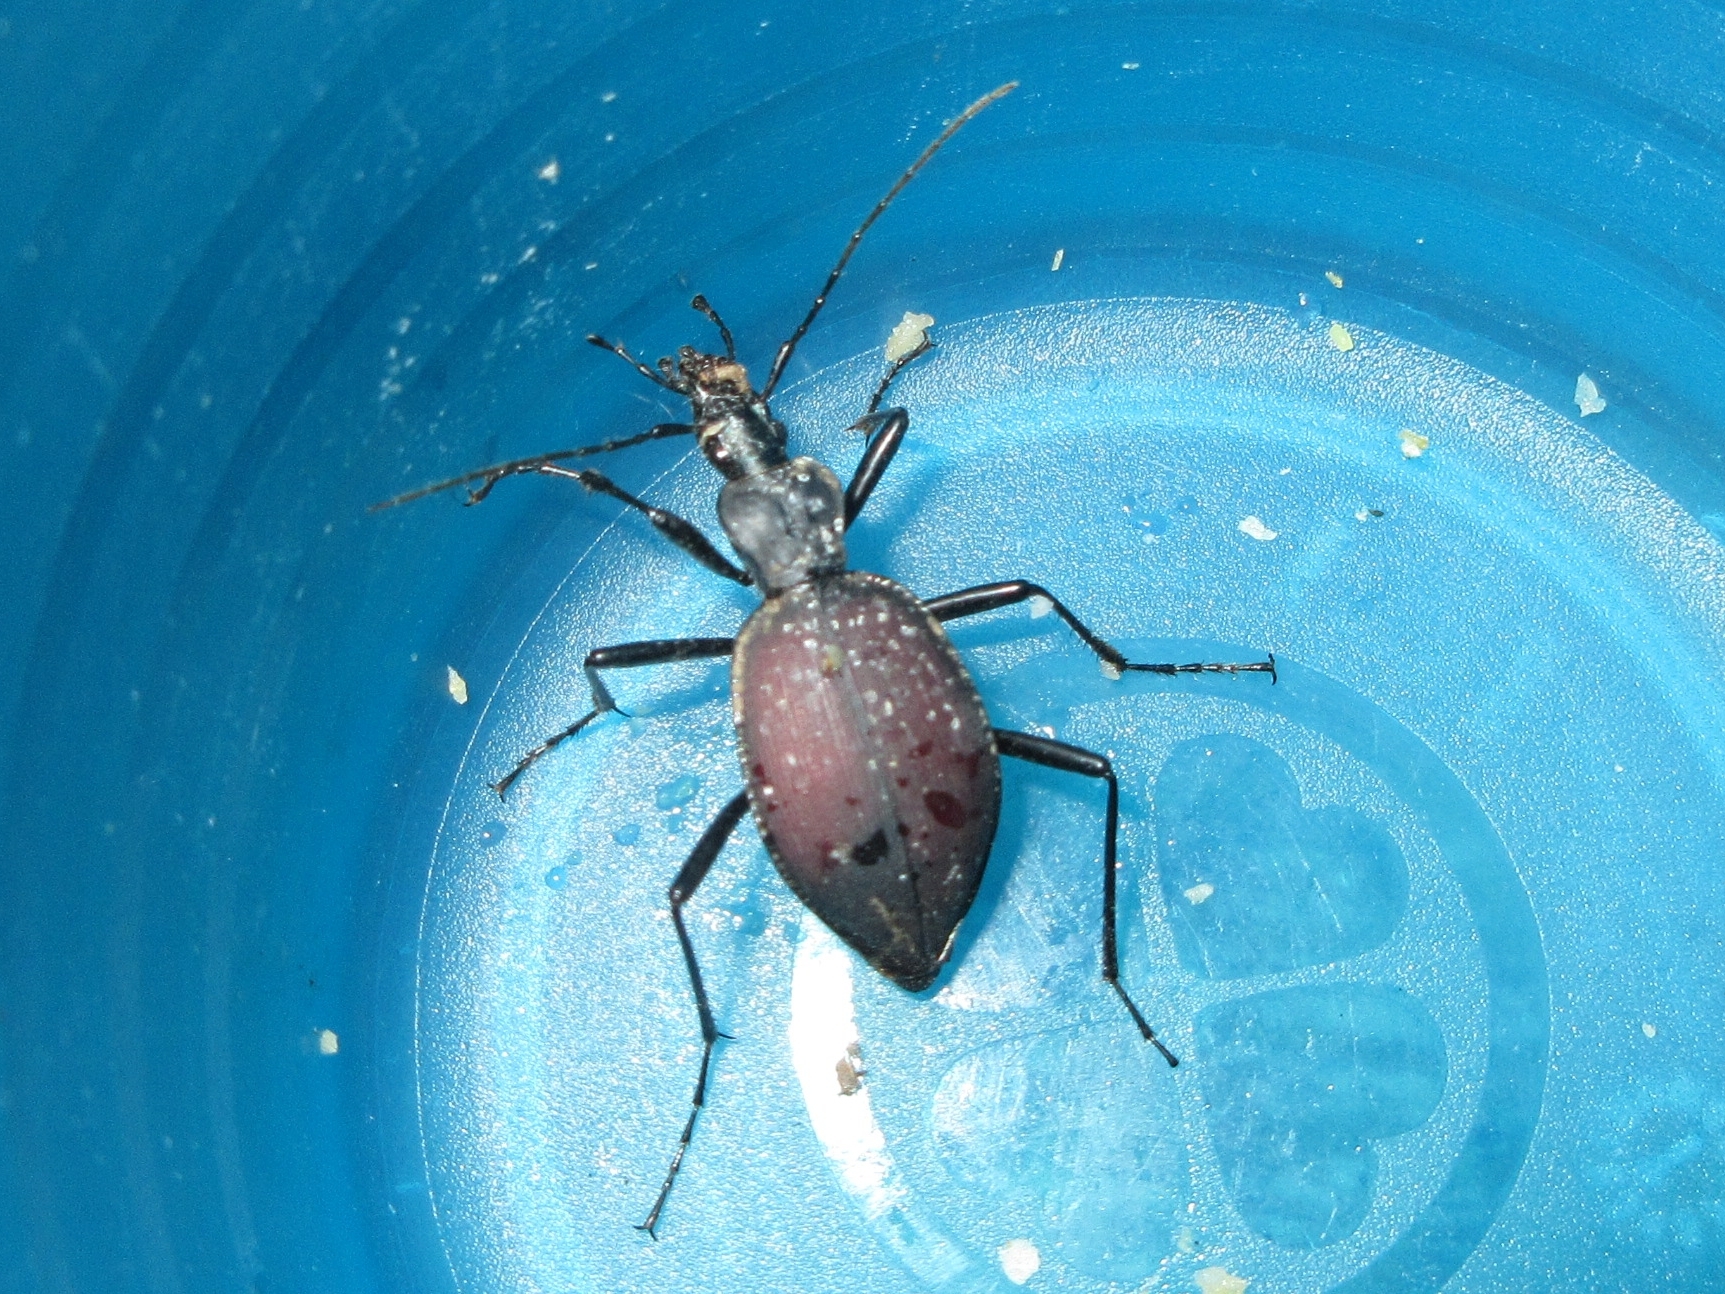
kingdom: Animalia
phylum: Arthropoda
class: Insecta
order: Coleoptera
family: Carabidae
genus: Scaphinotus
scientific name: Scaphinotus angusticollis
